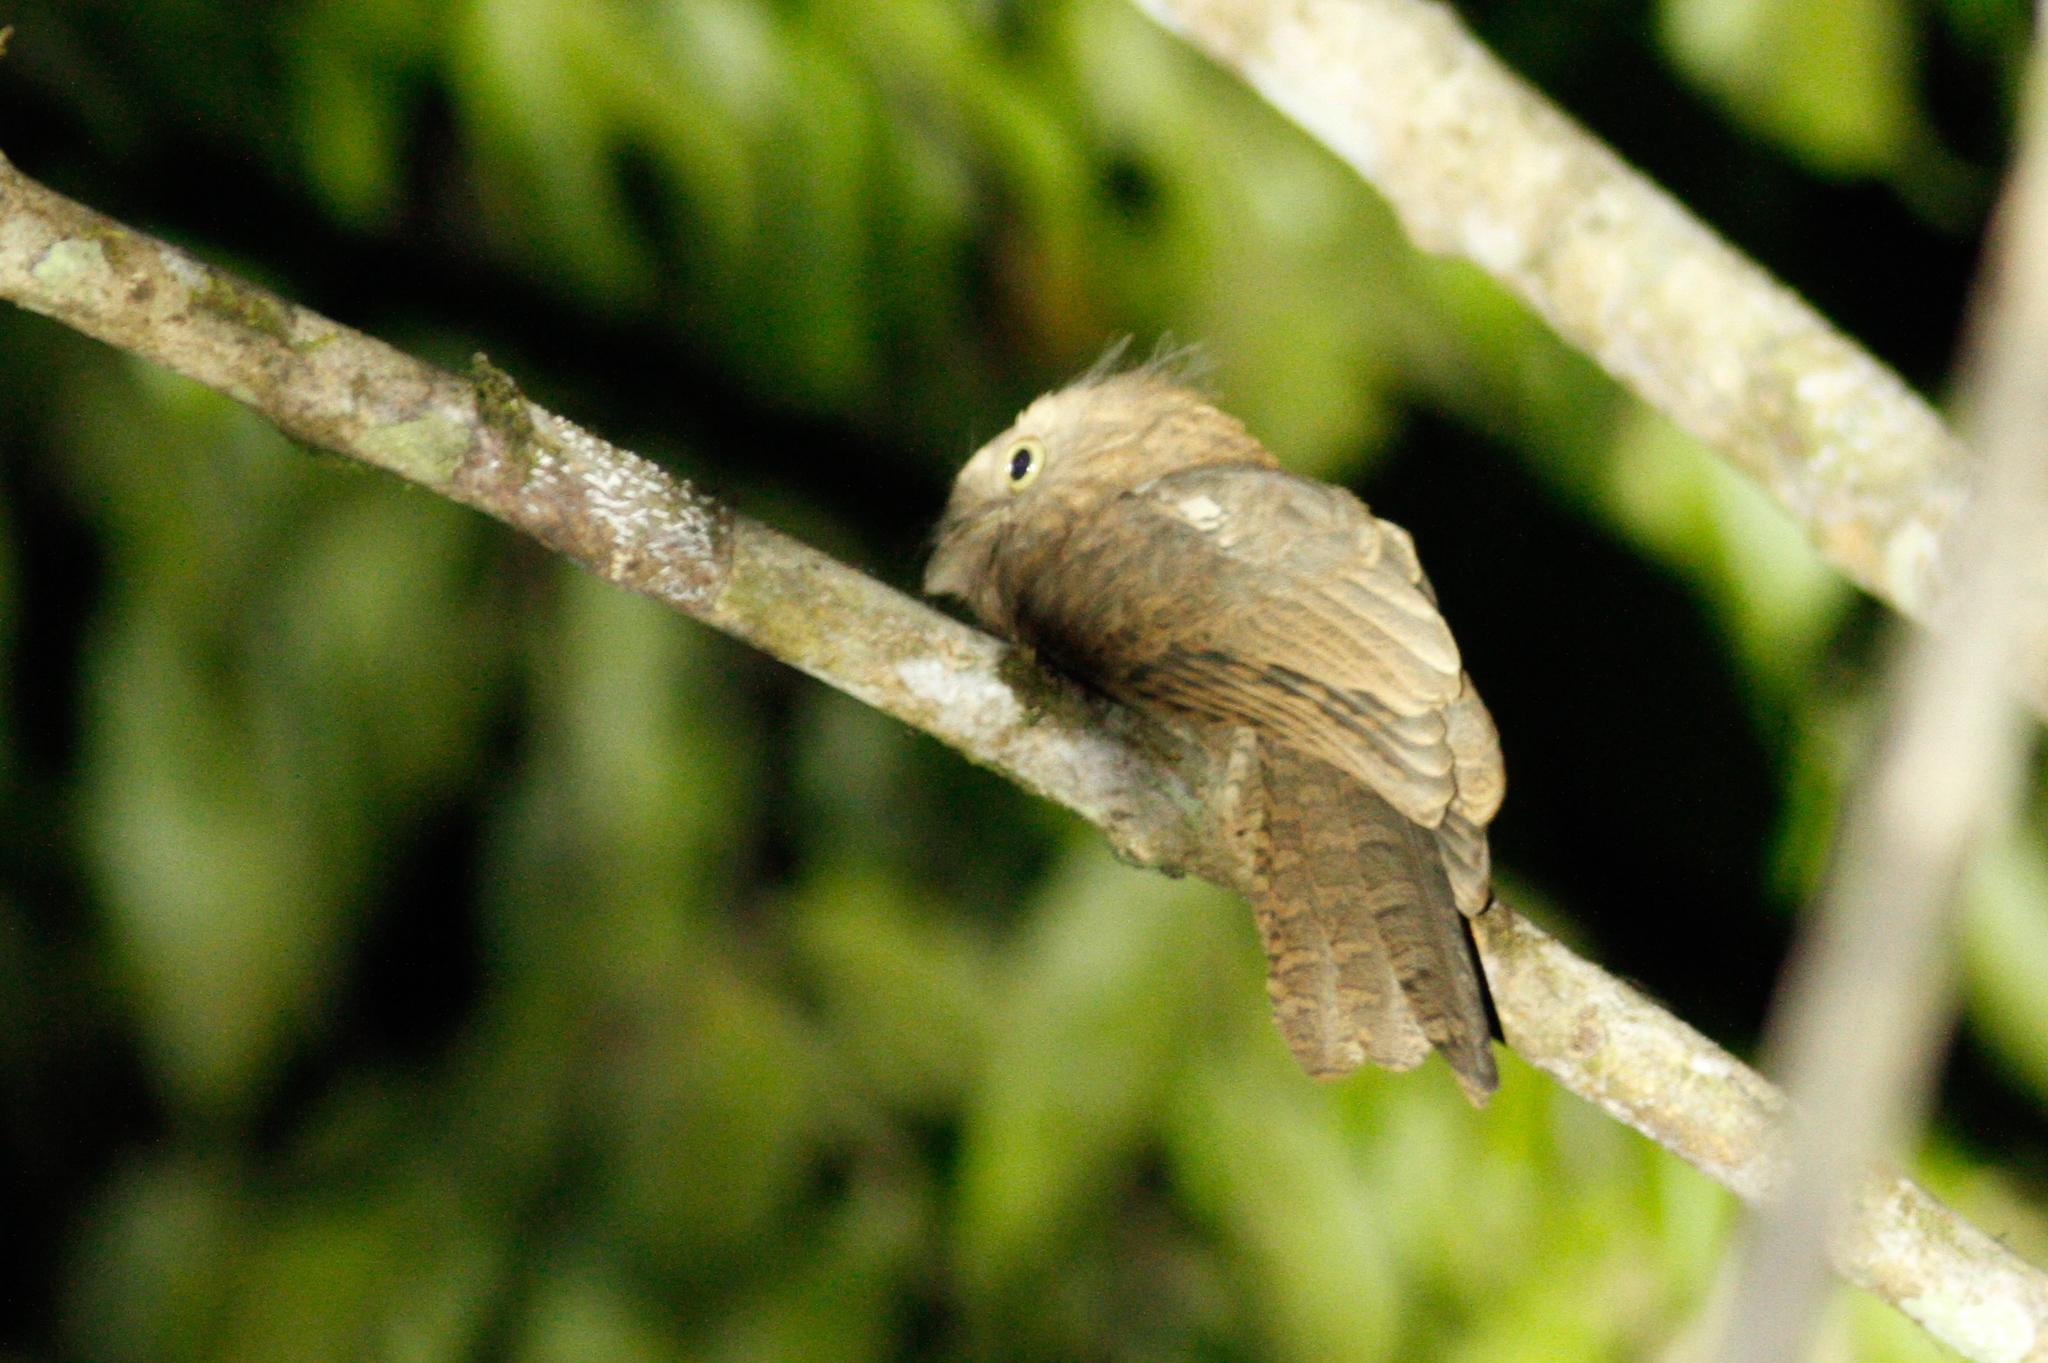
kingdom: Animalia
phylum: Chordata
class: Aves
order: Caprimulgiformes
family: Podargidae
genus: Batrachostomus
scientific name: Batrachostomus affinis
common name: Blyth's frogmouth
